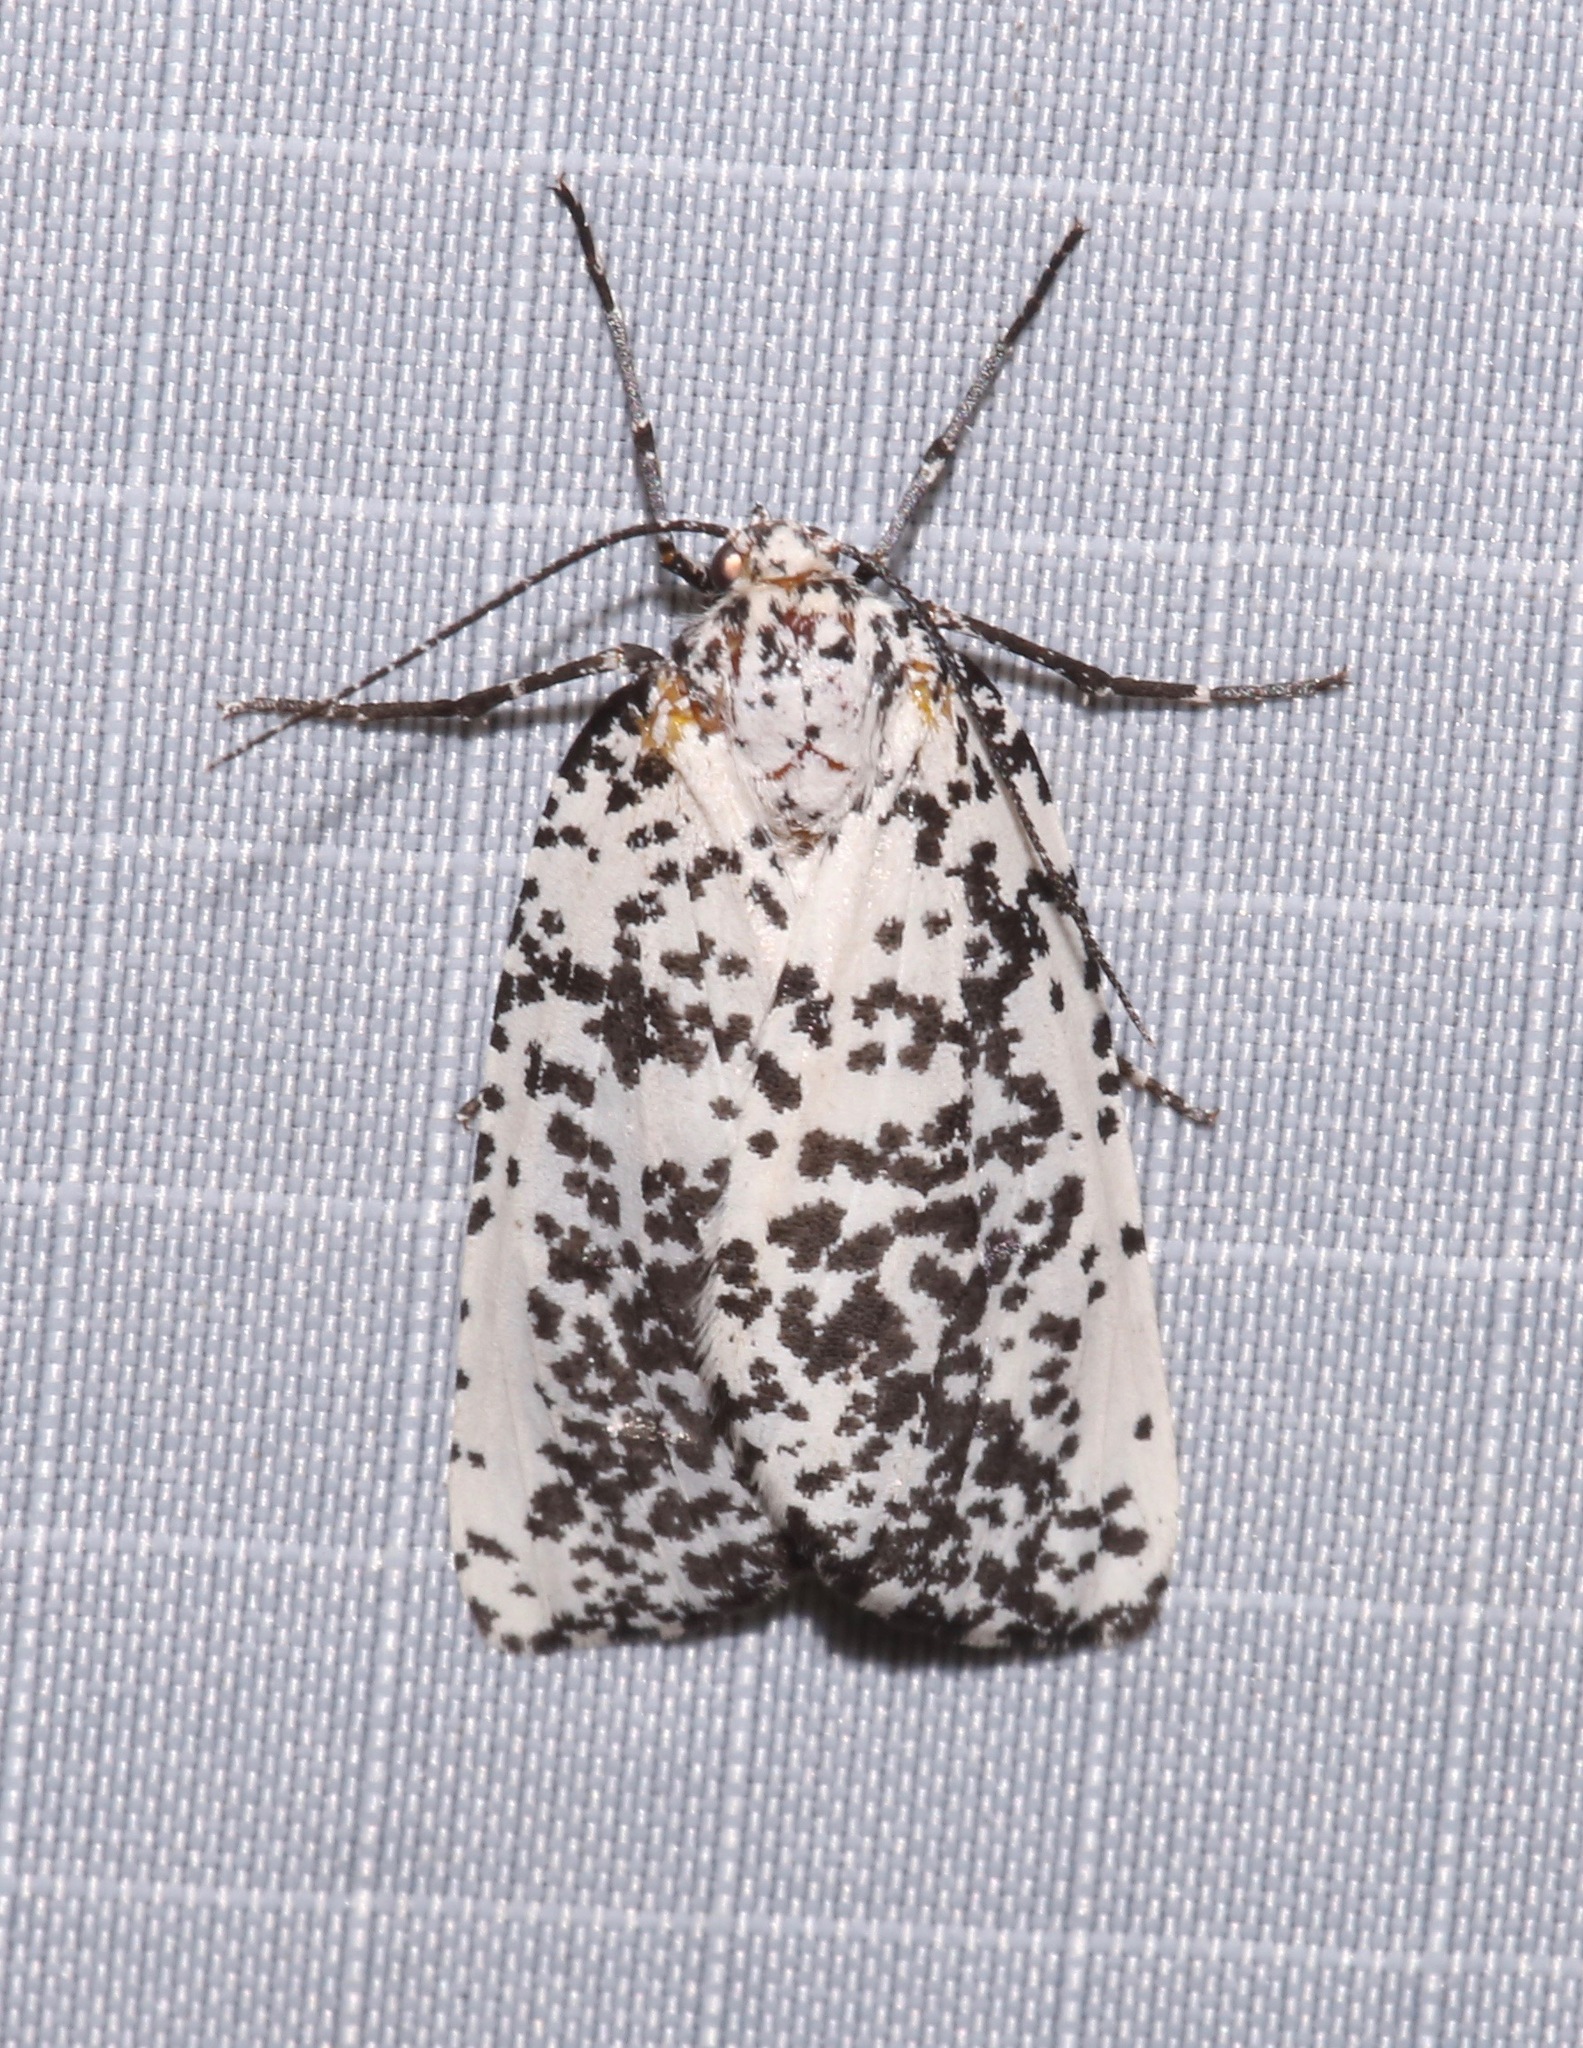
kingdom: Animalia
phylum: Arthropoda
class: Insecta
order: Lepidoptera
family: Geometridae
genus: Eucaterva
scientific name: Eucaterva variaria
